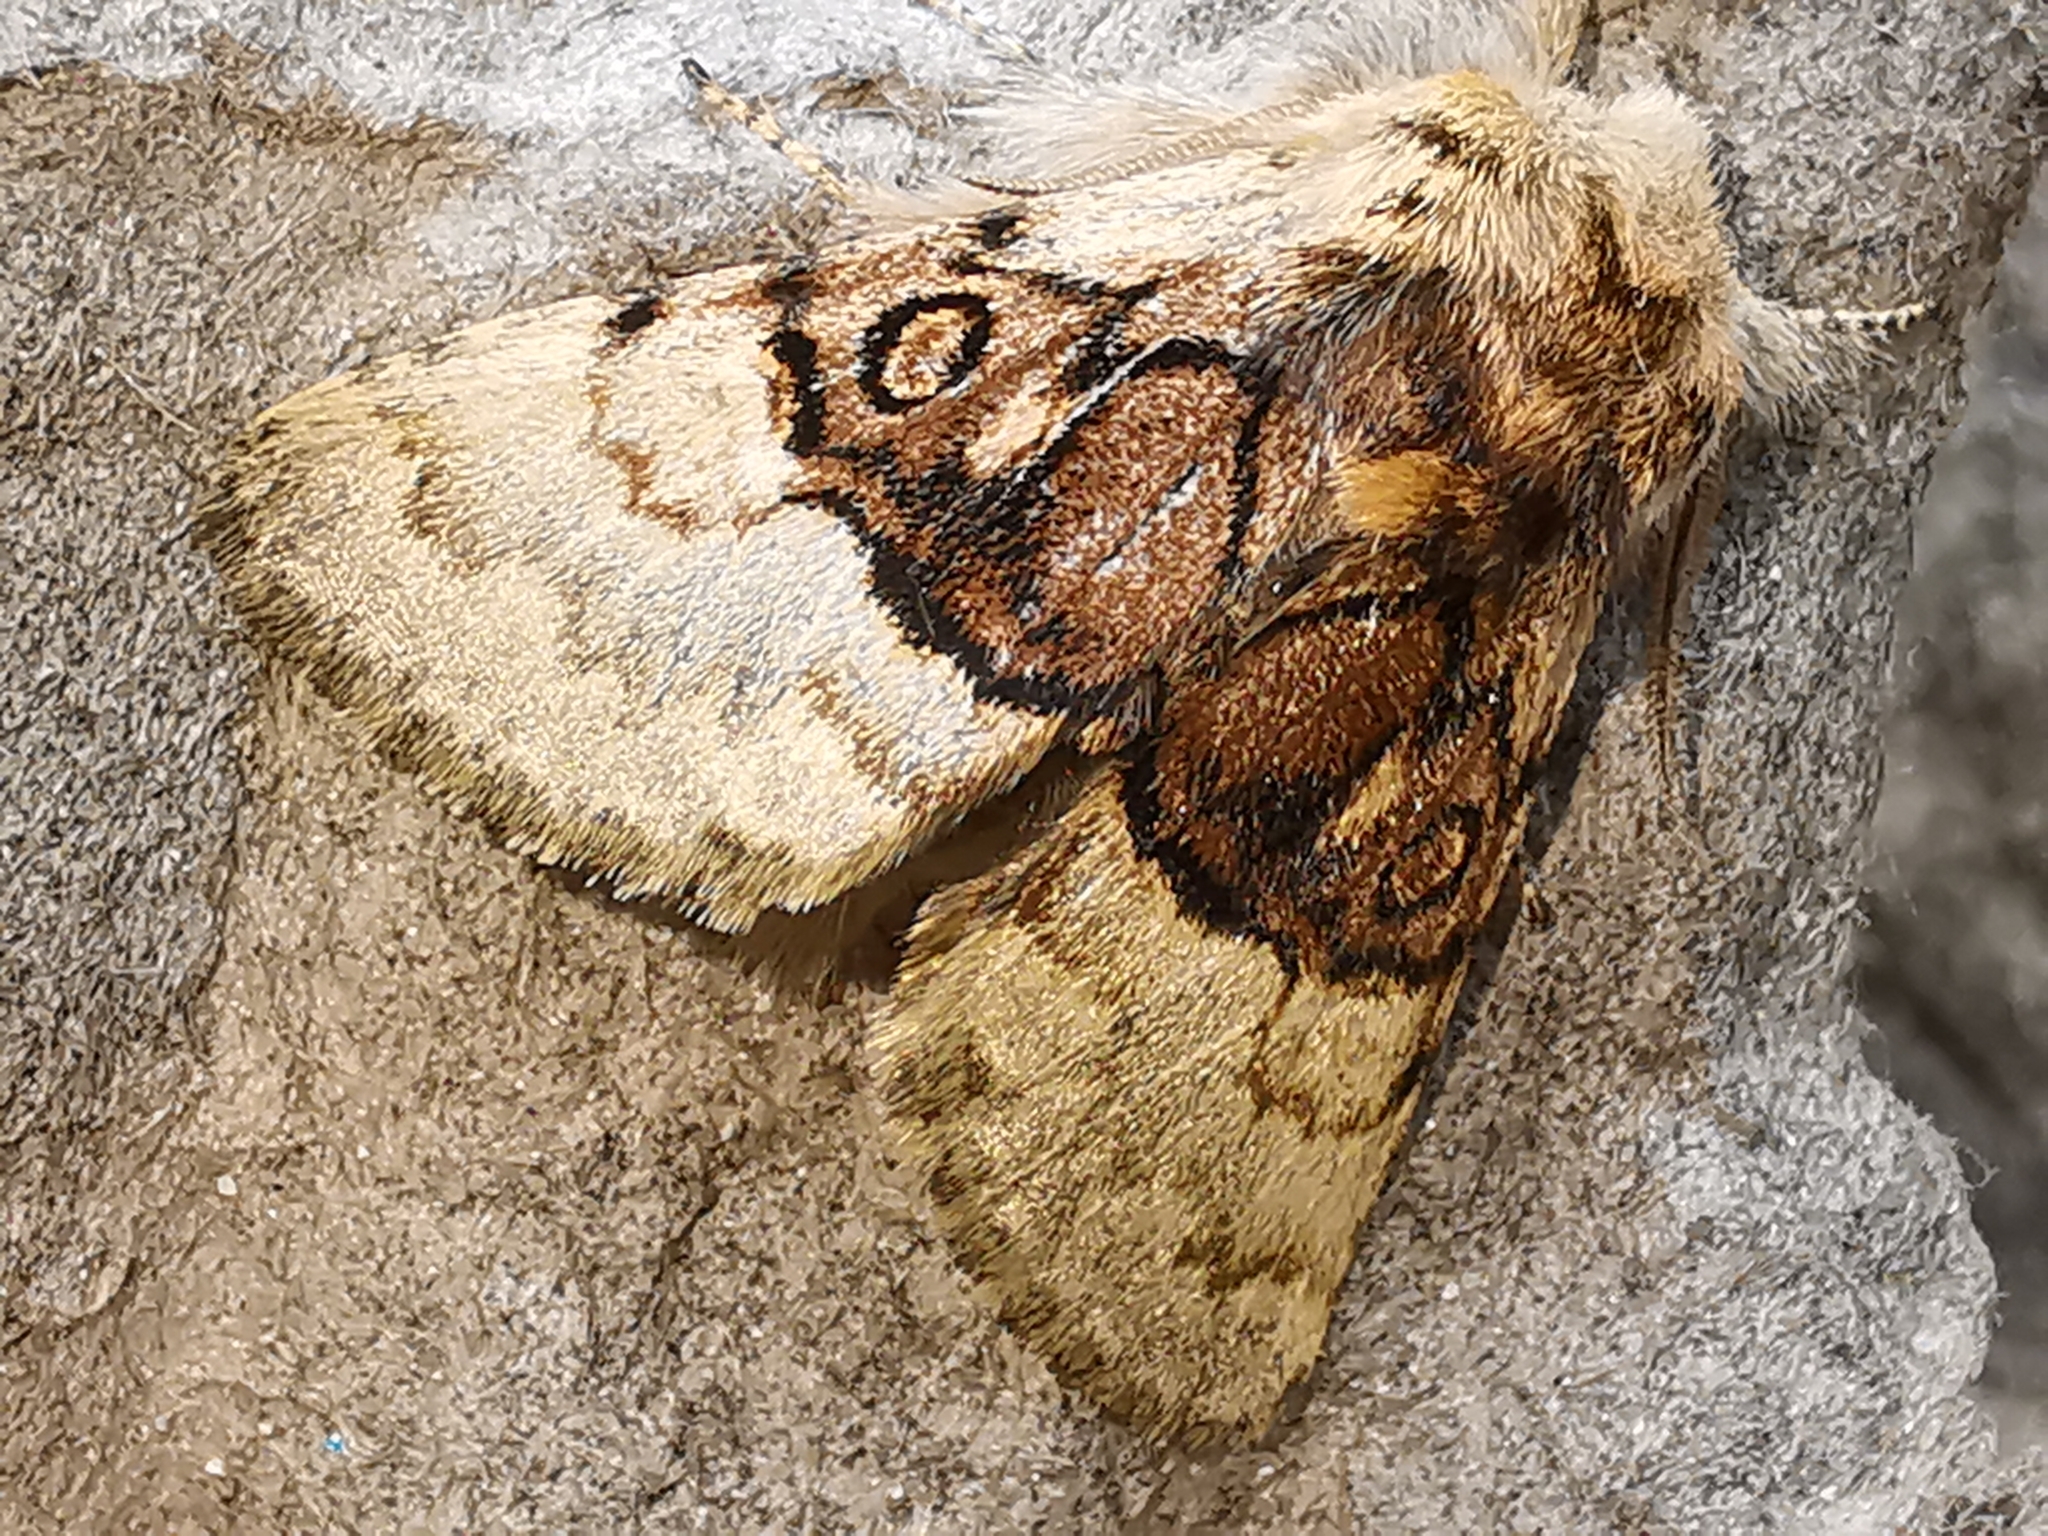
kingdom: Animalia
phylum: Arthropoda
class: Insecta
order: Lepidoptera
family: Noctuidae
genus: Colocasia
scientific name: Colocasia coryli
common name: Nut-tree tussock
